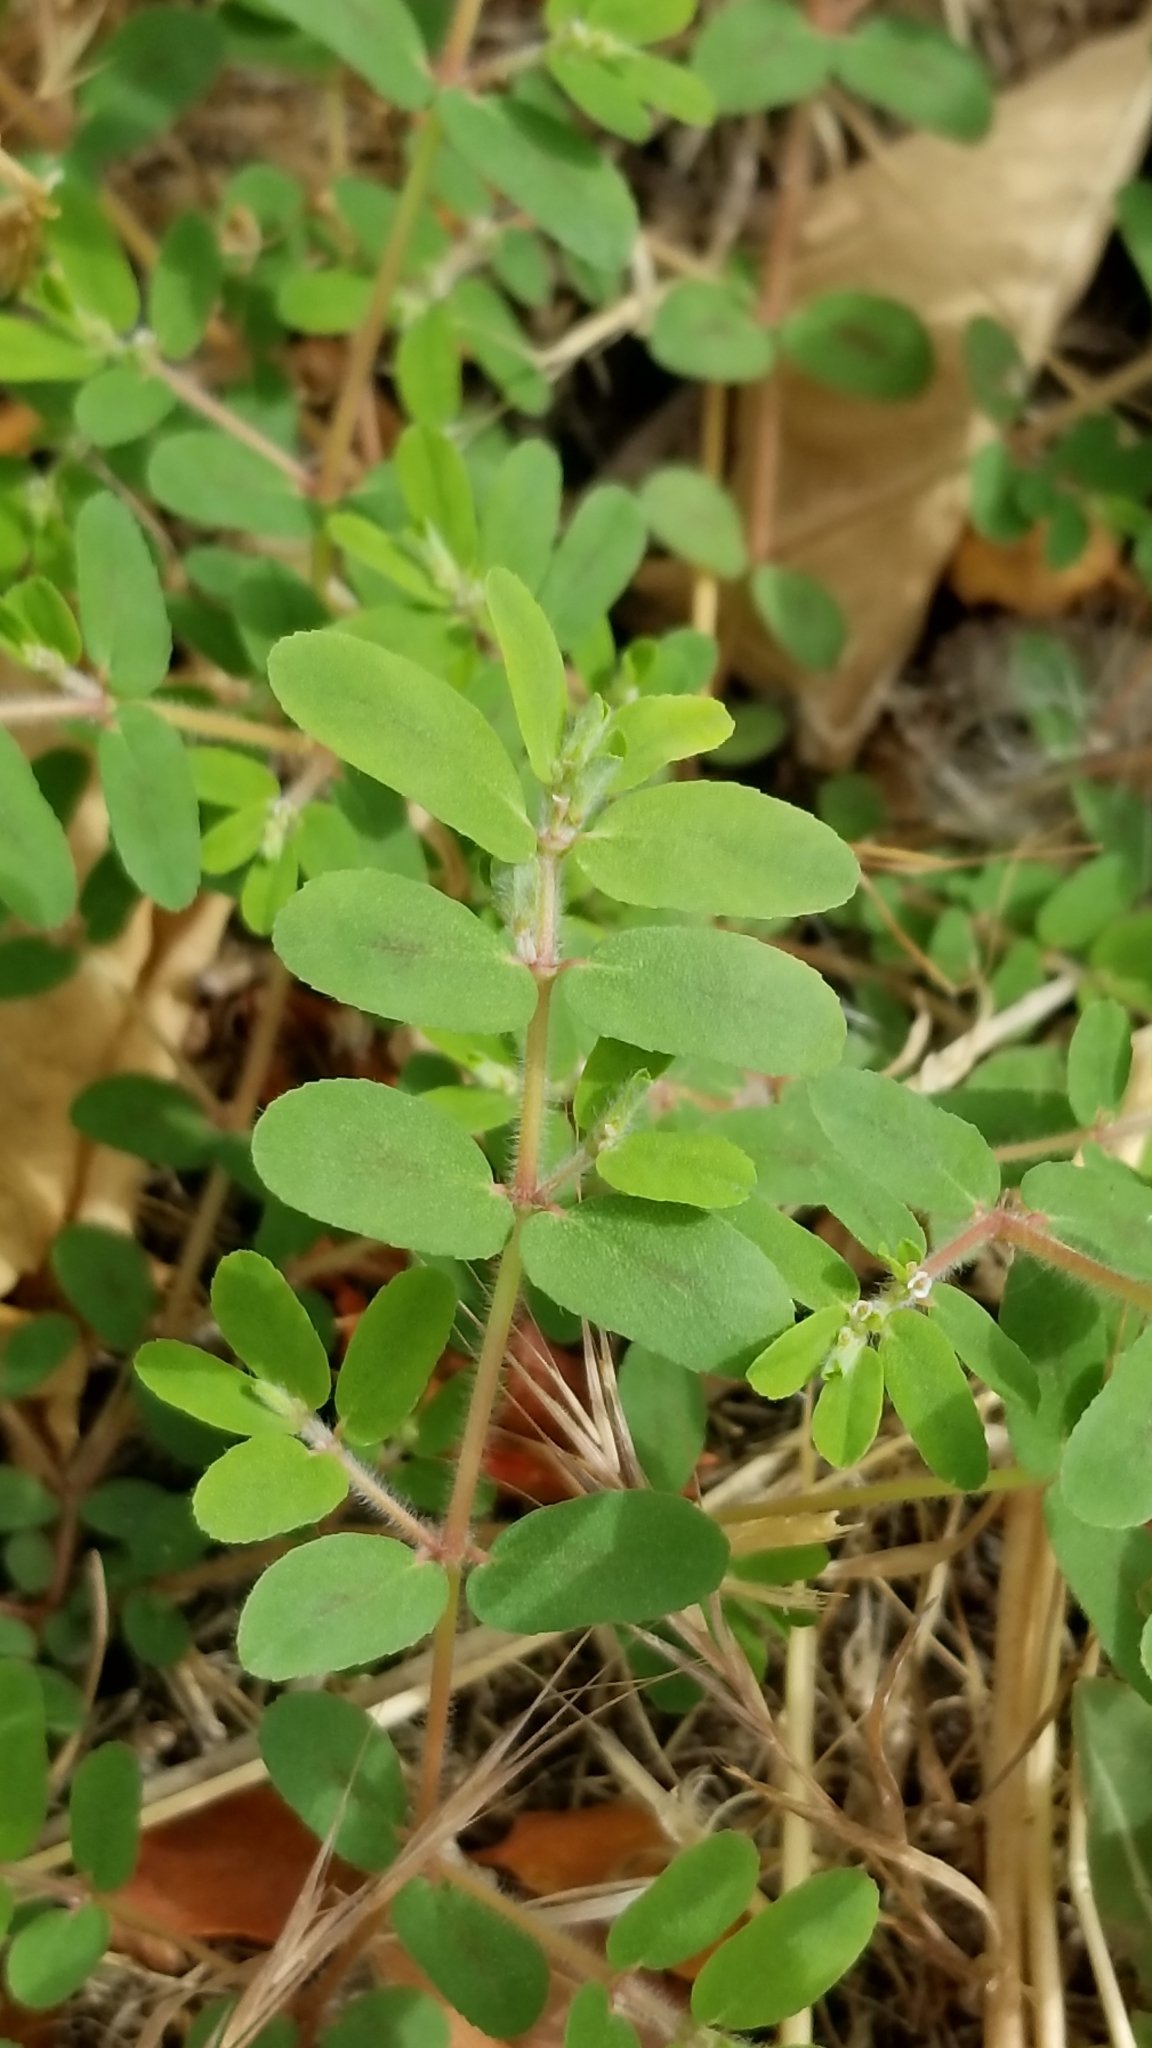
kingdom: Plantae
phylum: Tracheophyta
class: Magnoliopsida
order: Malpighiales
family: Euphorbiaceae
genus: Euphorbia
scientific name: Euphorbia maculata
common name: Spotted spurge
